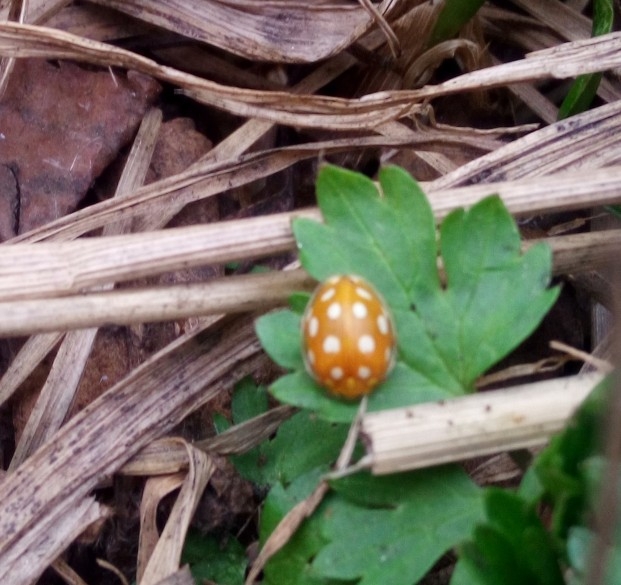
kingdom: Animalia
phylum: Arthropoda
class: Insecta
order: Coleoptera
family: Coccinellidae
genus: Halyzia
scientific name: Halyzia sedecimguttata
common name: Orange ladybird
